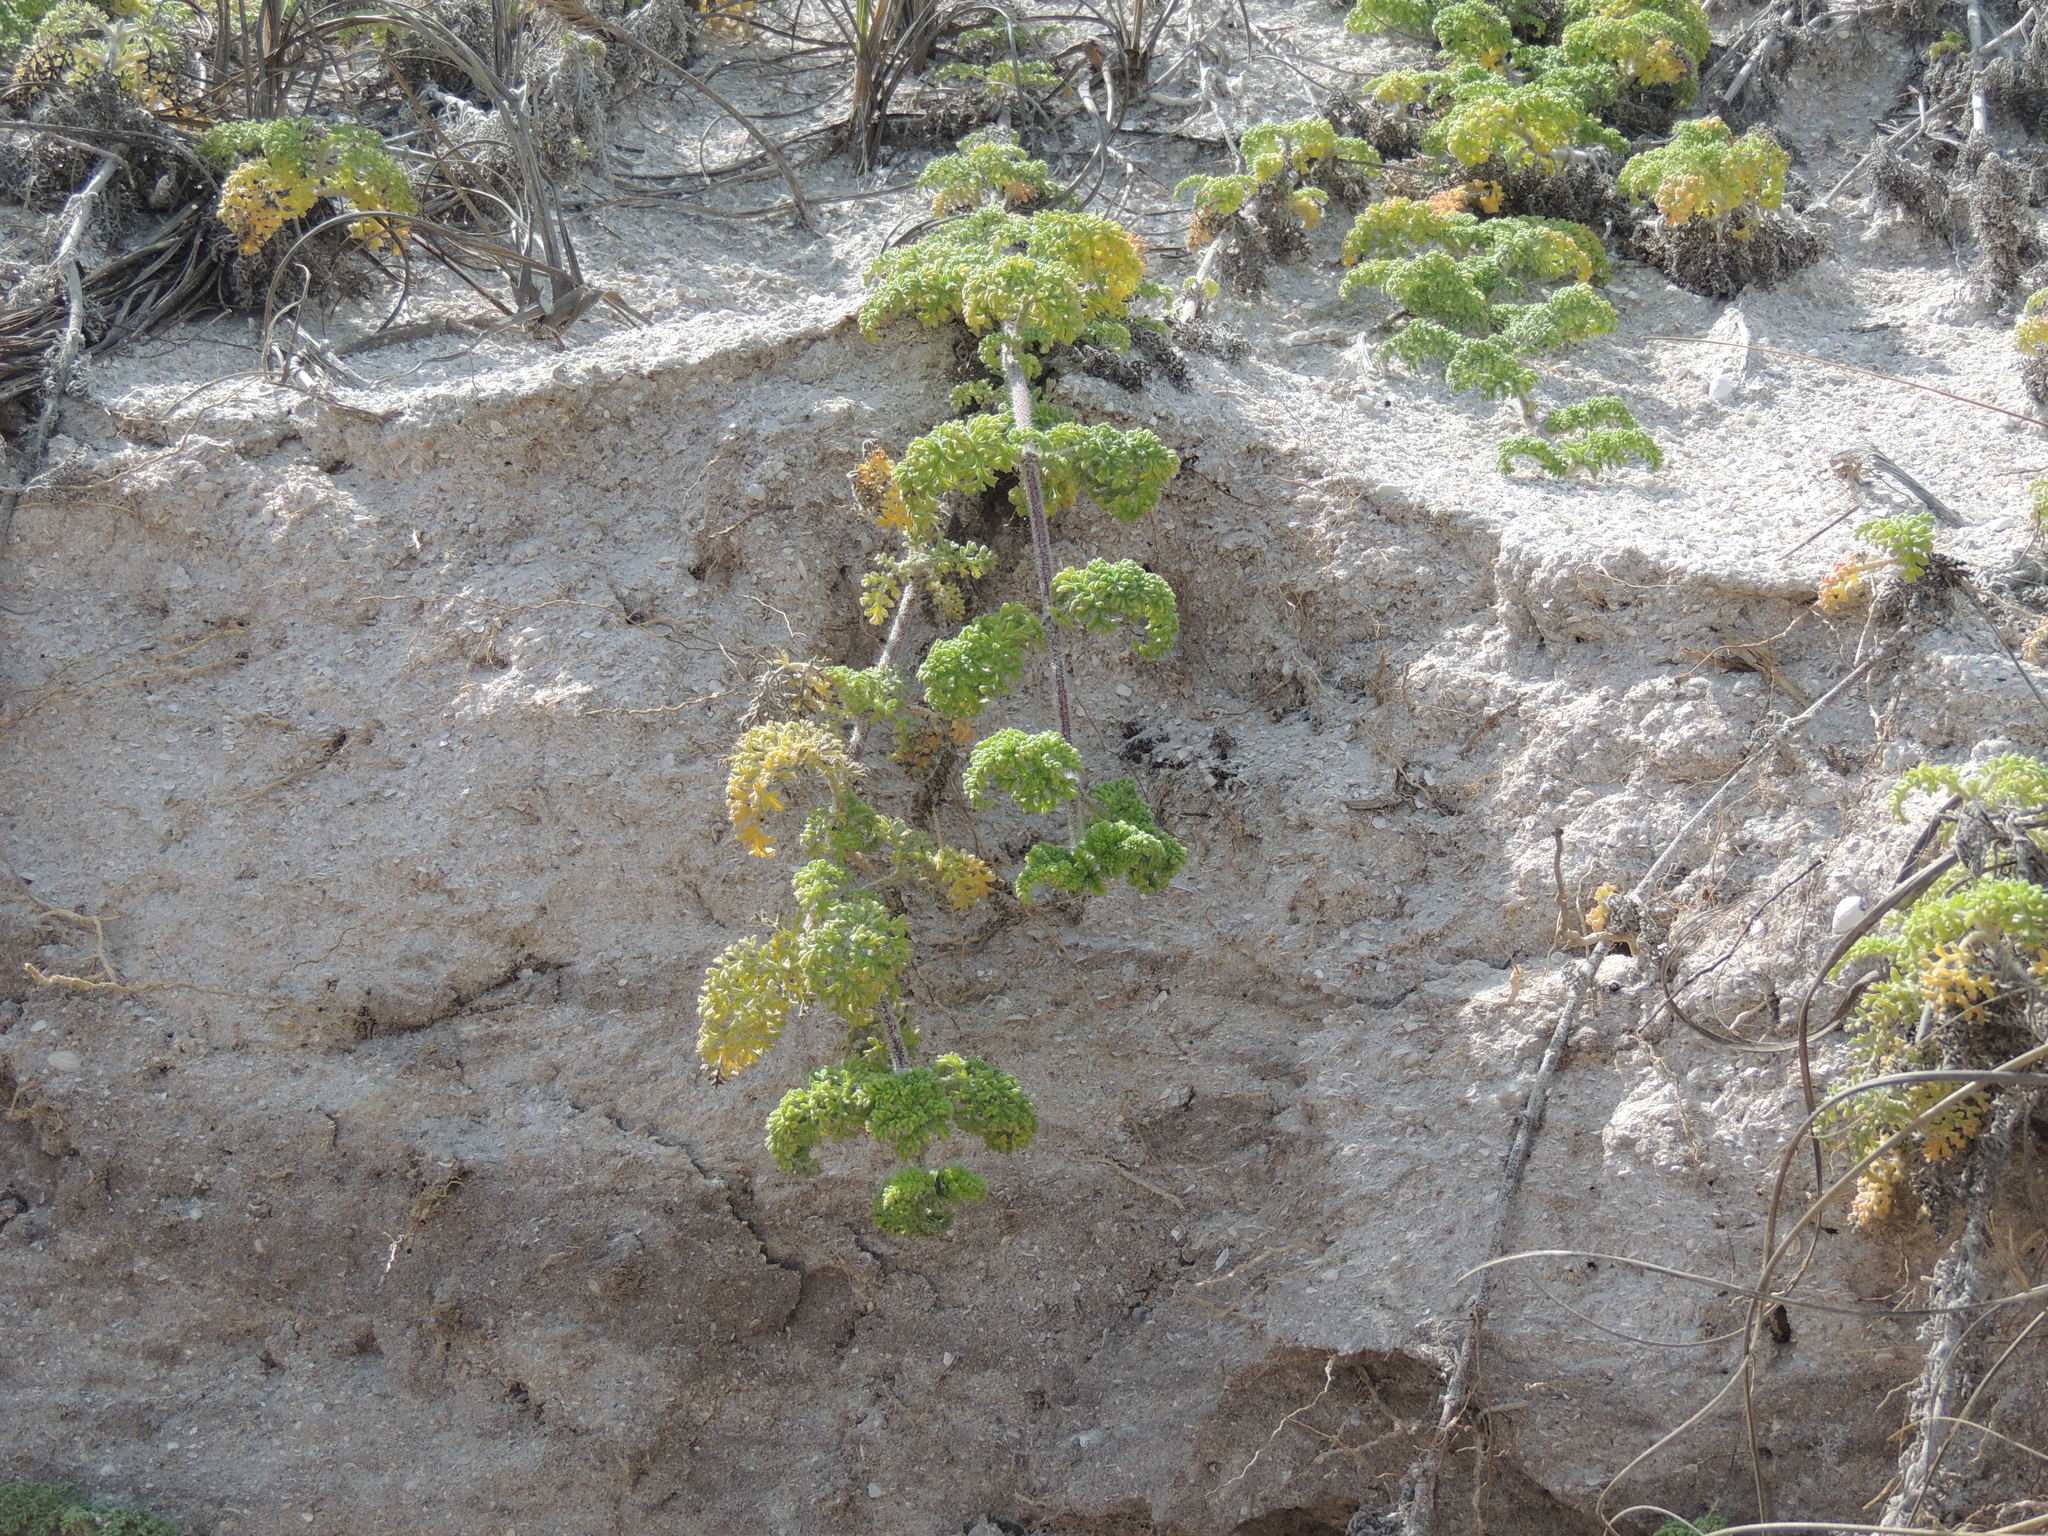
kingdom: Plantae
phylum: Tracheophyta
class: Magnoliopsida
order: Asterales
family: Asteraceae
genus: Ambrosia
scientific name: Ambrosia hispida
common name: Coastal ragweed
